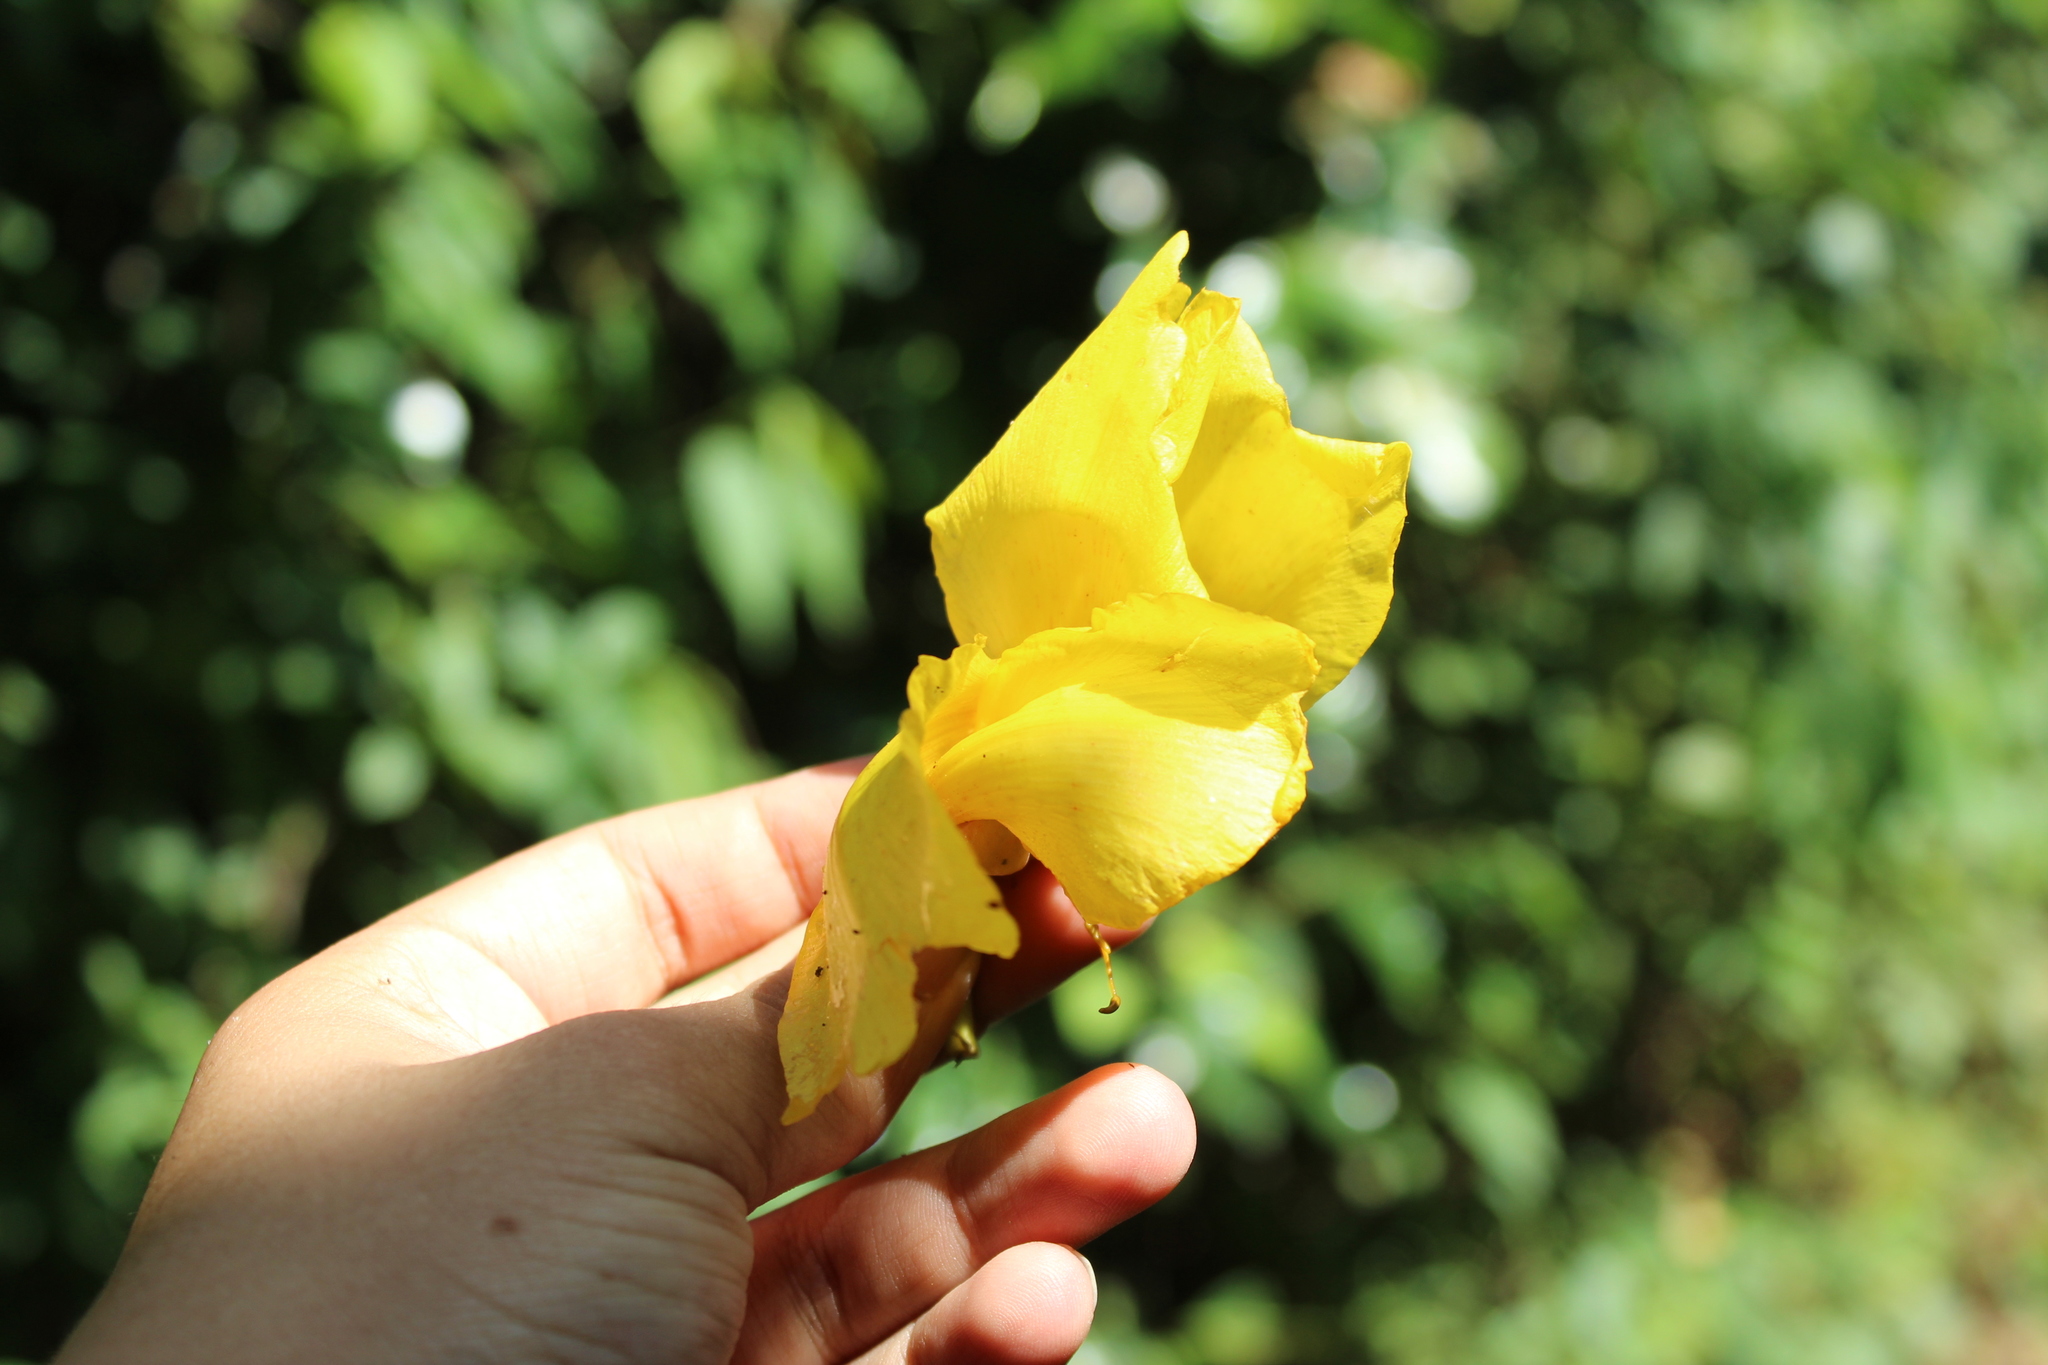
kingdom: Plantae
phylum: Tracheophyta
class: Magnoliopsida
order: Malvales
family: Cochlospermaceae
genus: Cochlospermum
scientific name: Cochlospermum vitifolium
